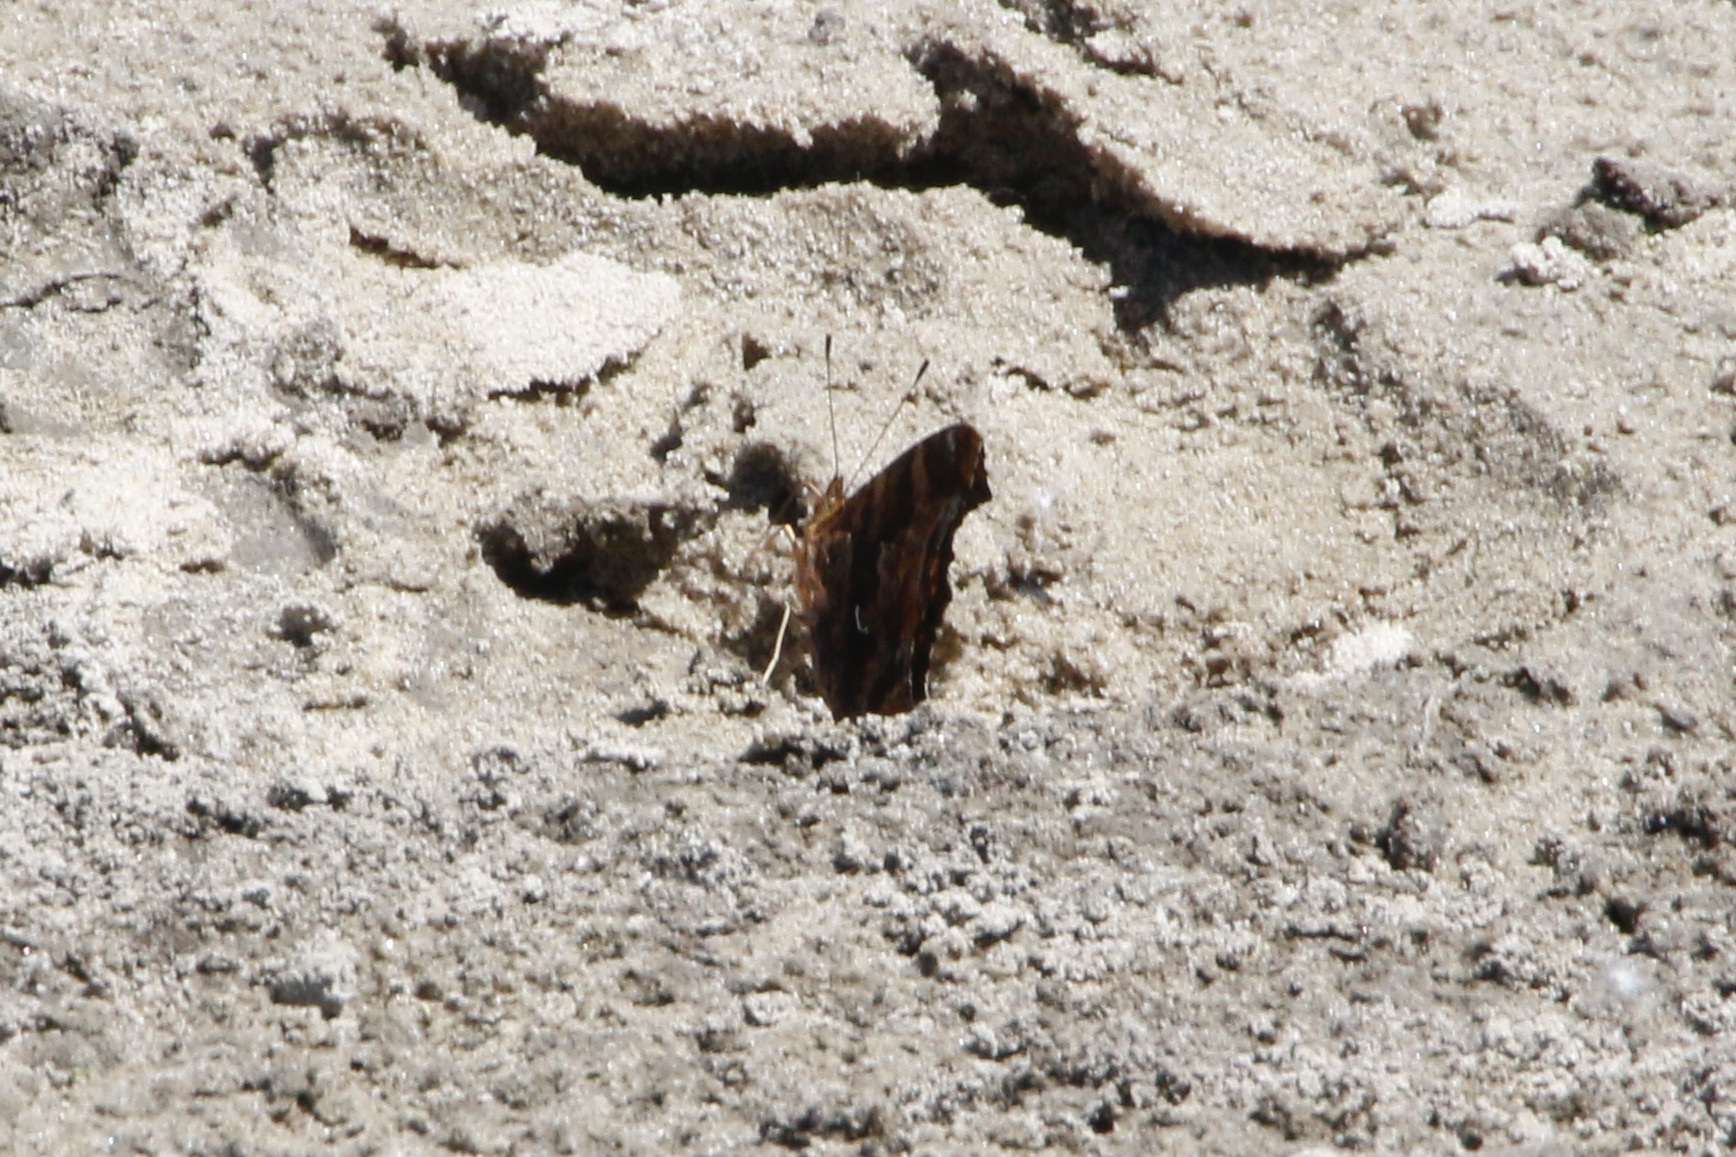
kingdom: Animalia
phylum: Arthropoda
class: Insecta
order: Lepidoptera
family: Nymphalidae
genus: Polygonia
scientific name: Polygonia comma
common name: Eastern comma
